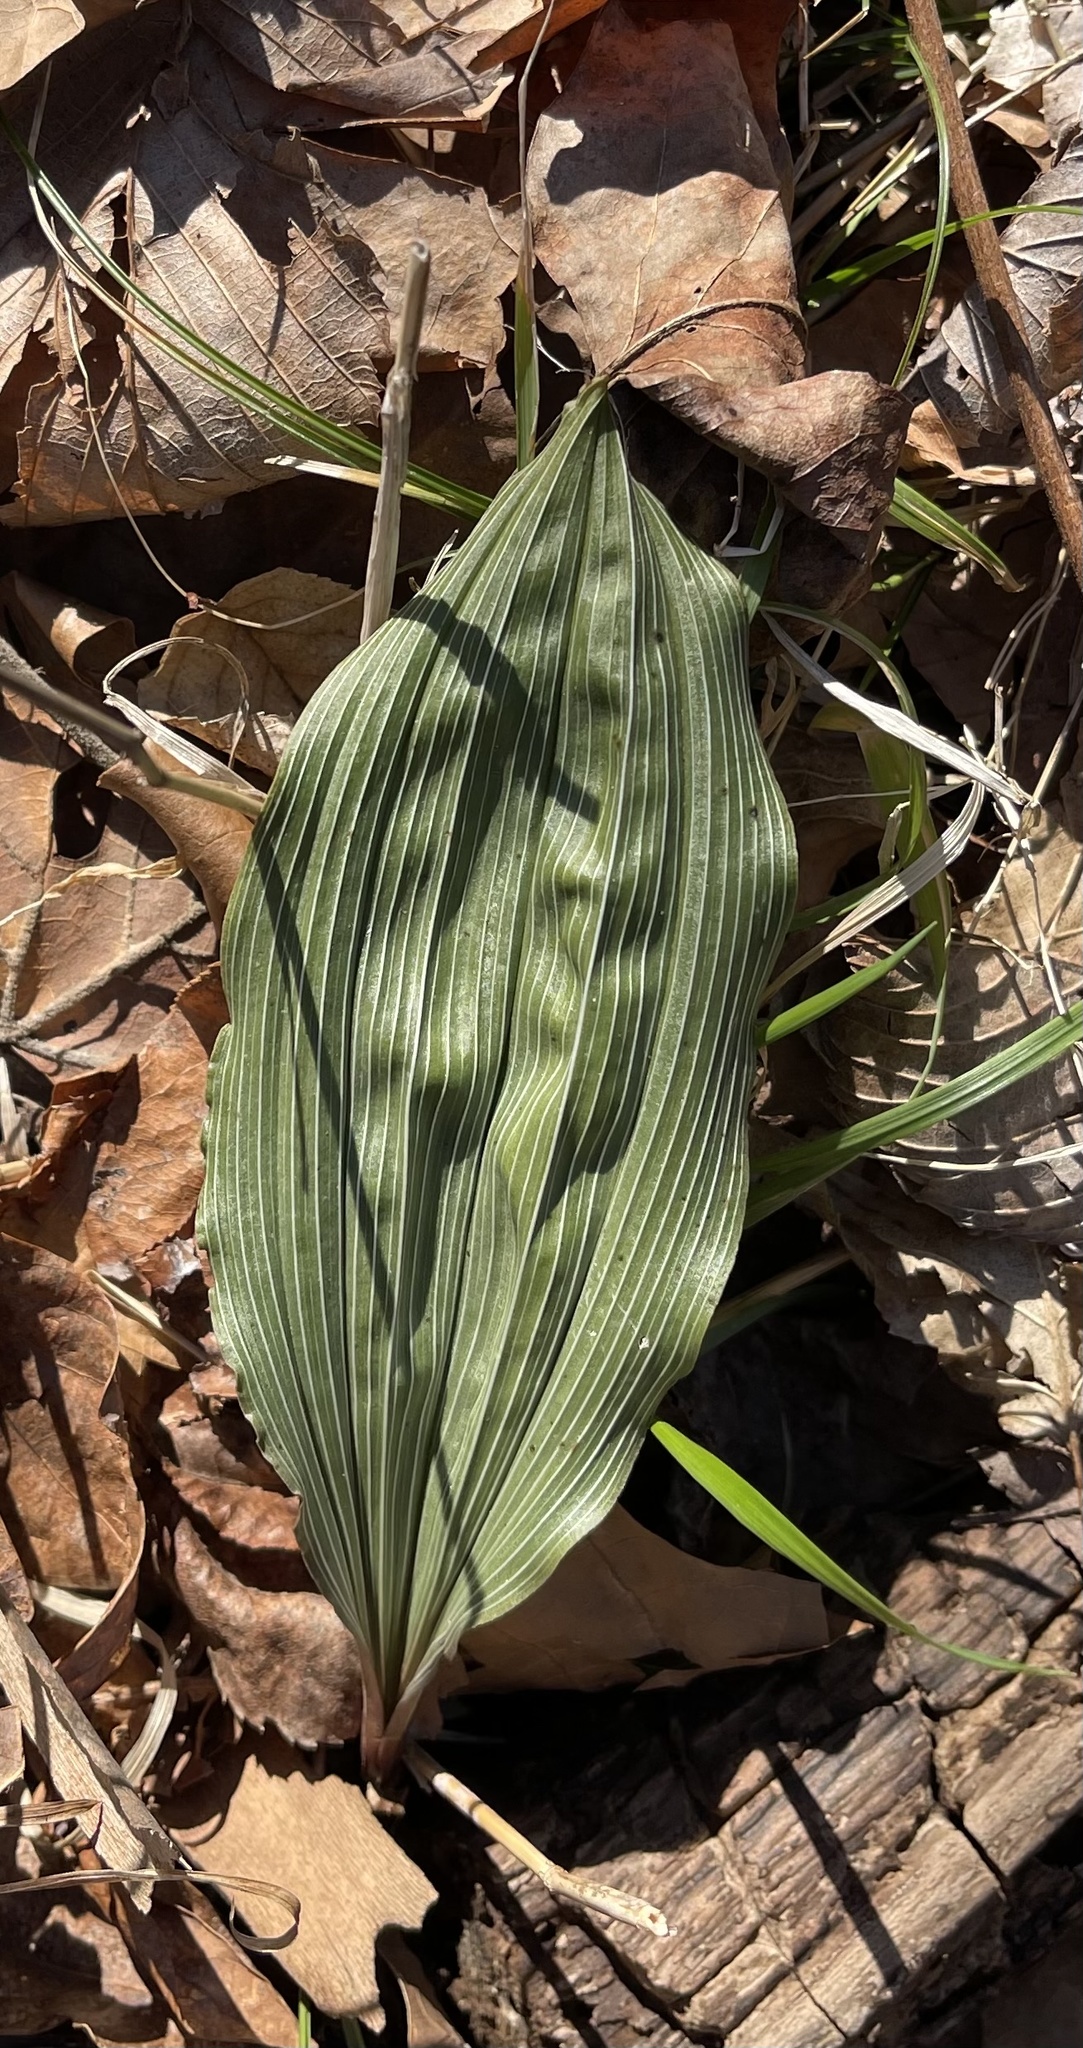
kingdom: Plantae
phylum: Tracheophyta
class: Liliopsida
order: Asparagales
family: Orchidaceae
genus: Aplectrum
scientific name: Aplectrum hyemale
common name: Adam-and-eve
